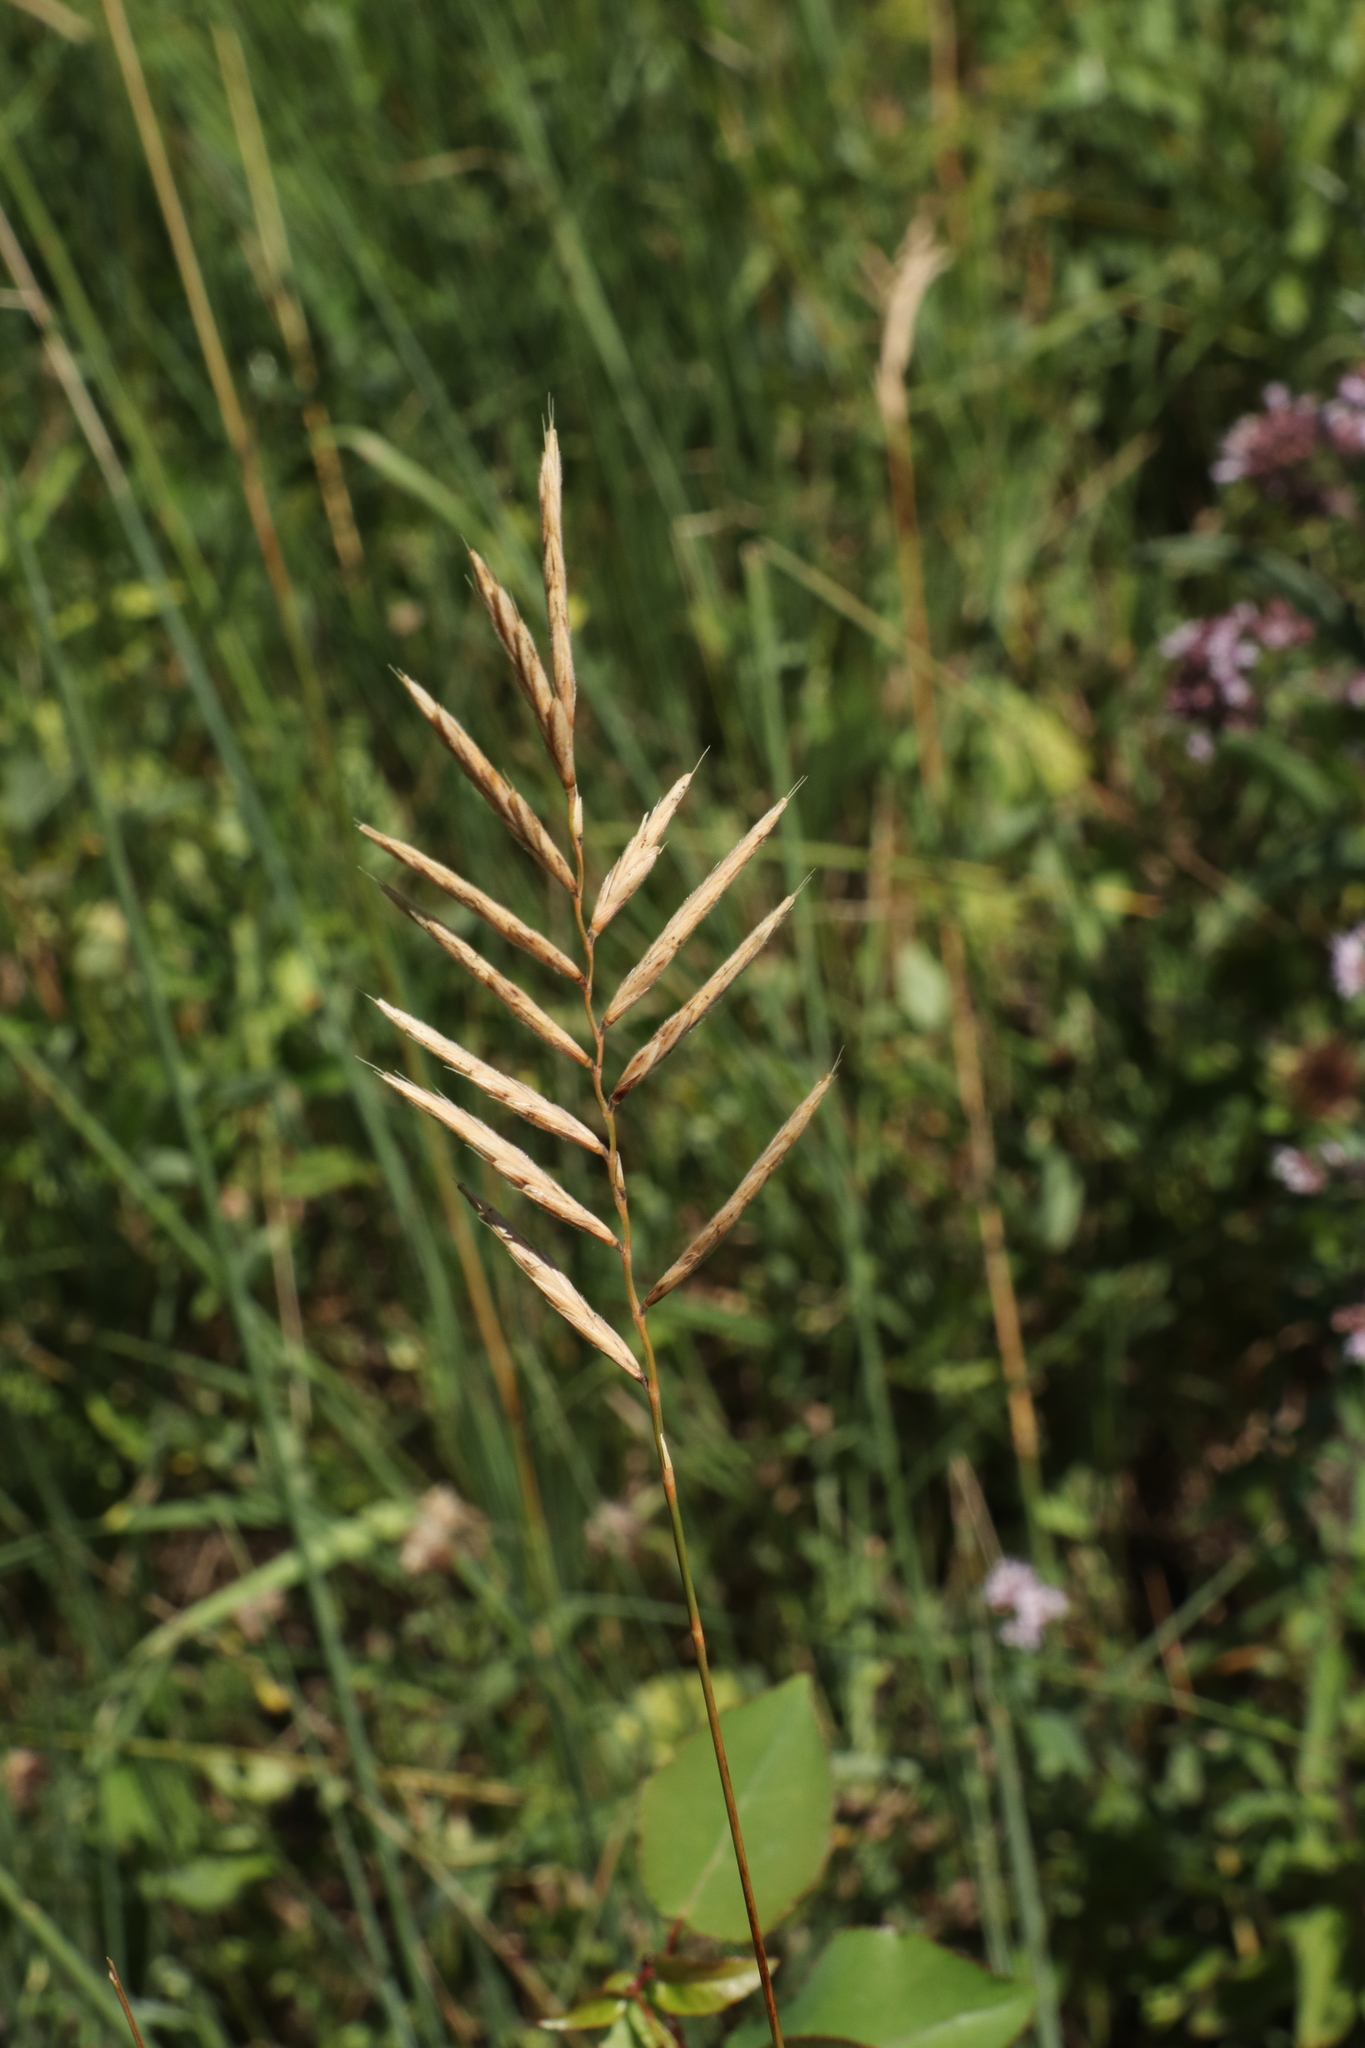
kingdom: Plantae
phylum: Tracheophyta
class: Liliopsida
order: Poales
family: Poaceae
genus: Brachypodium
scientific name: Brachypodium pinnatum
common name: Tor grass
